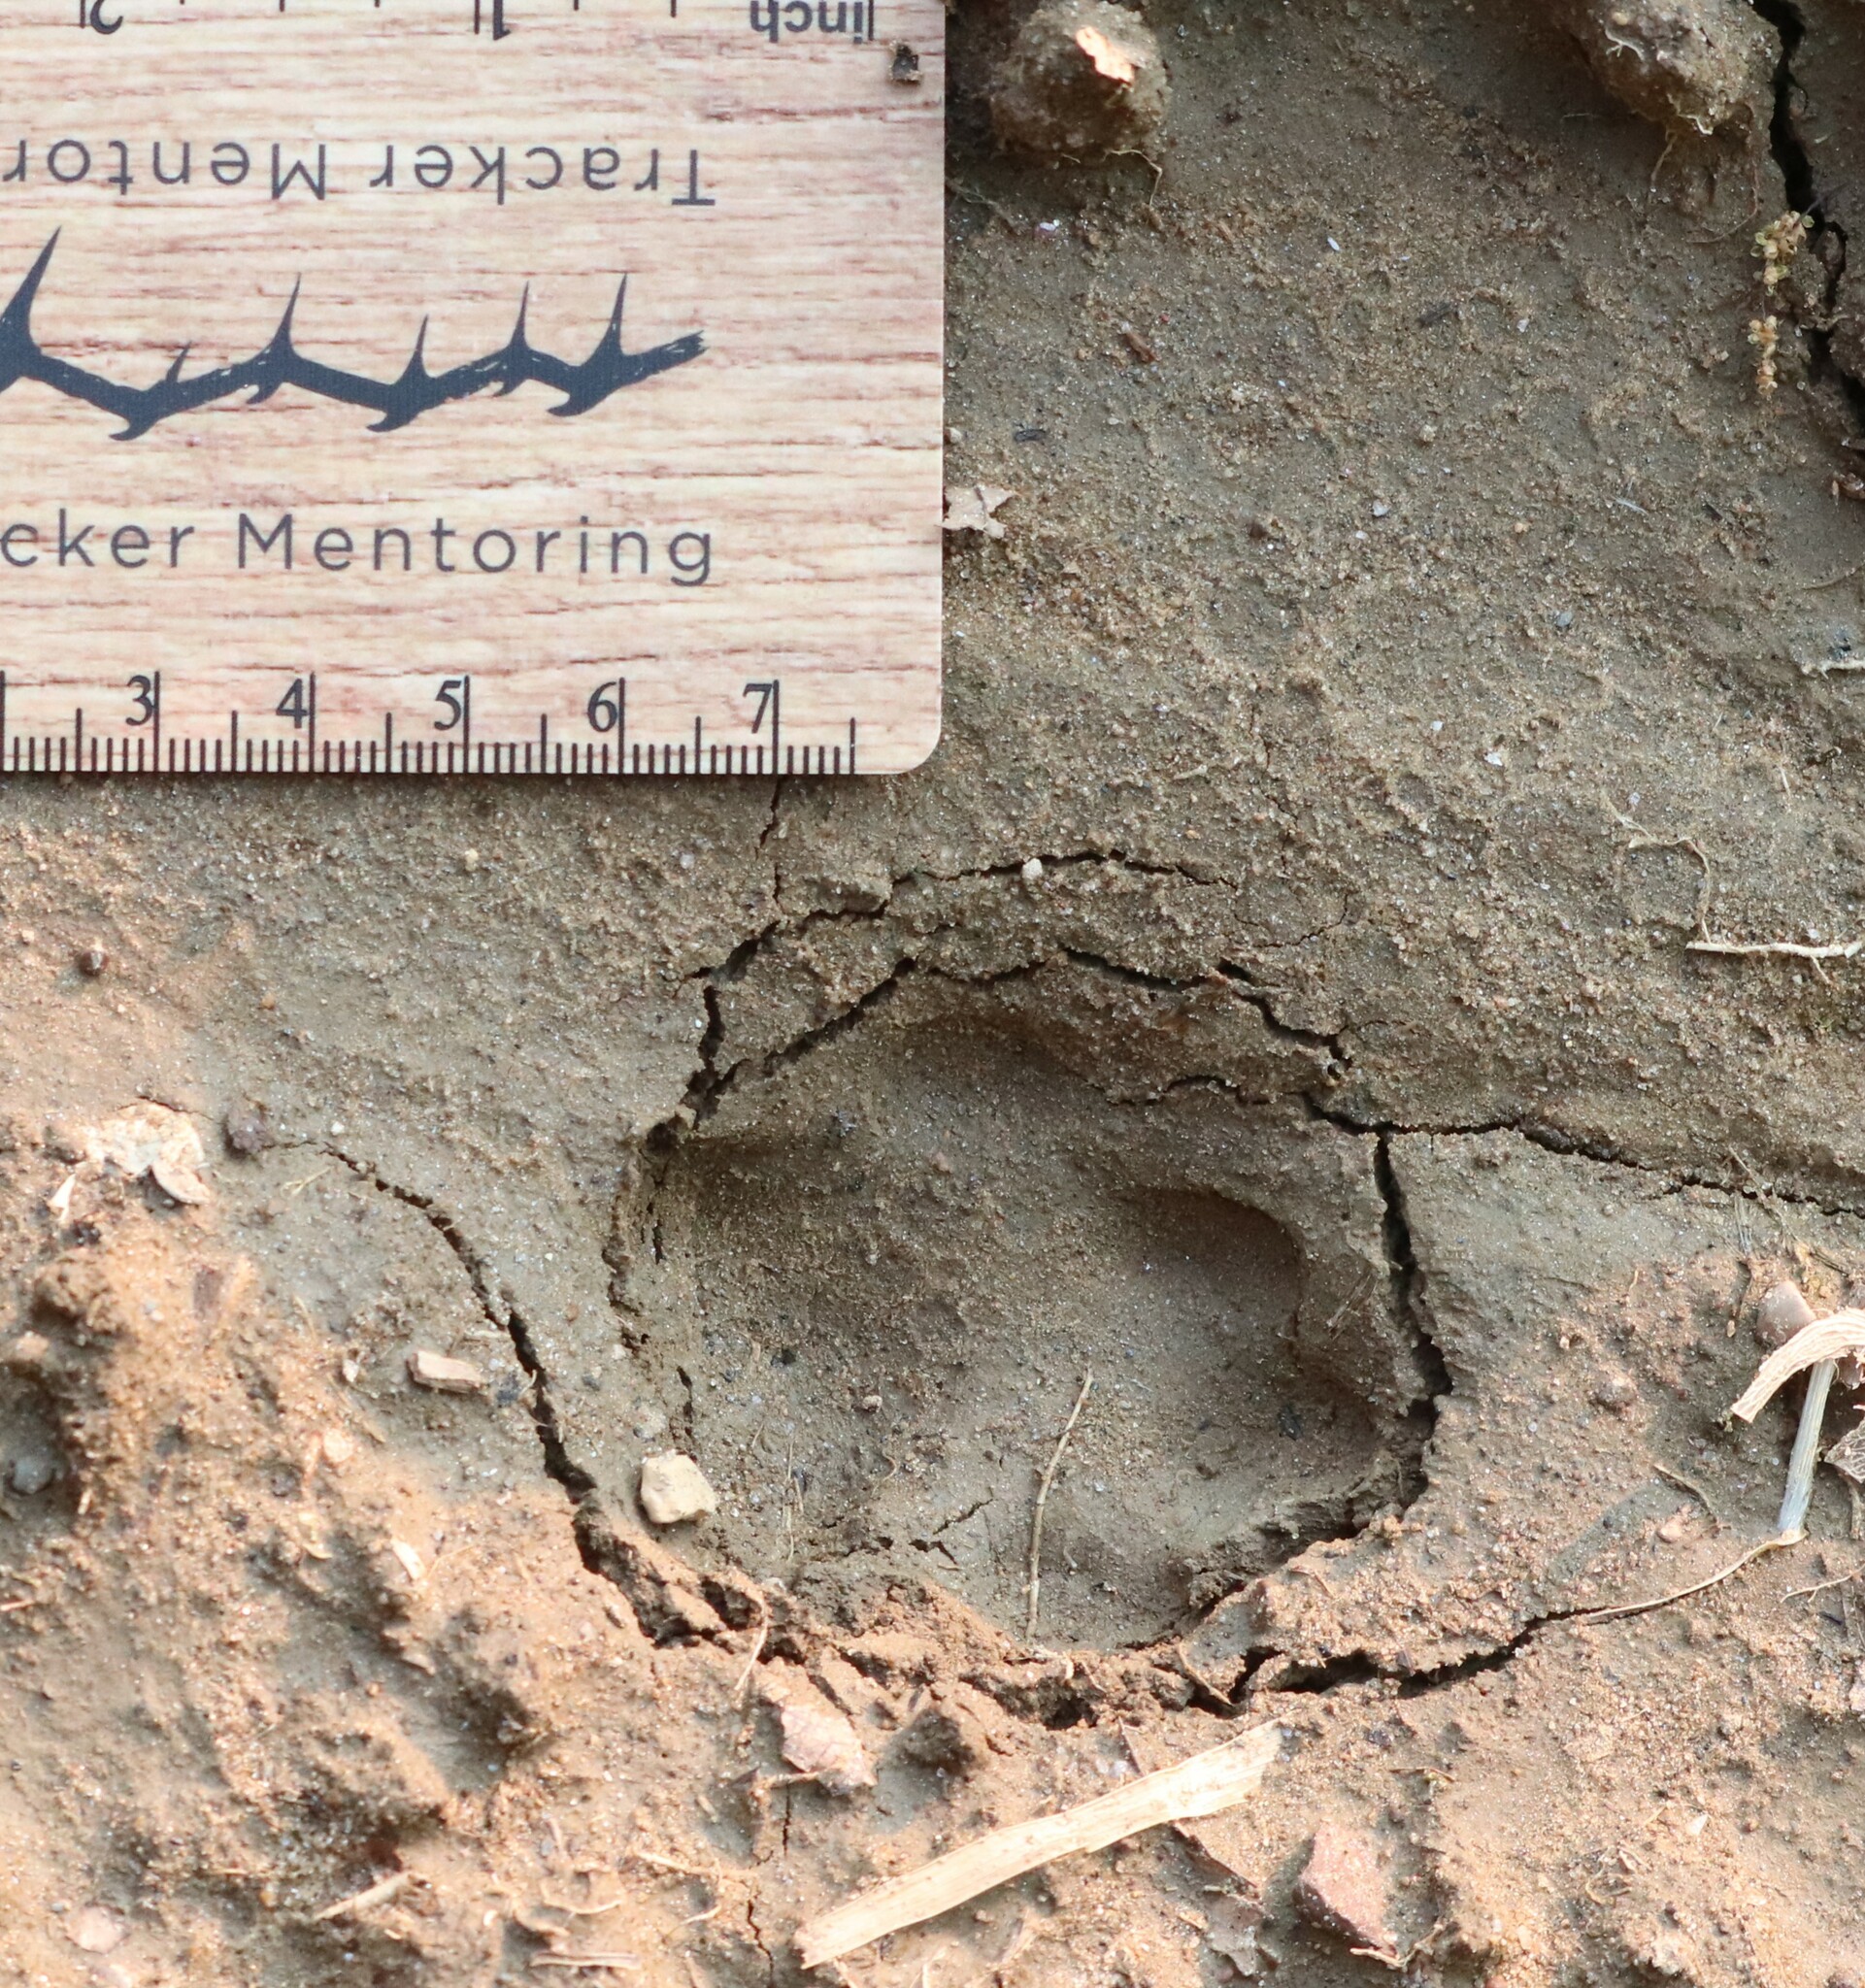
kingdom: Animalia
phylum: Chordata
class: Mammalia
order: Carnivora
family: Felidae
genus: Lynx
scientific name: Lynx rufus
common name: Bobcat
